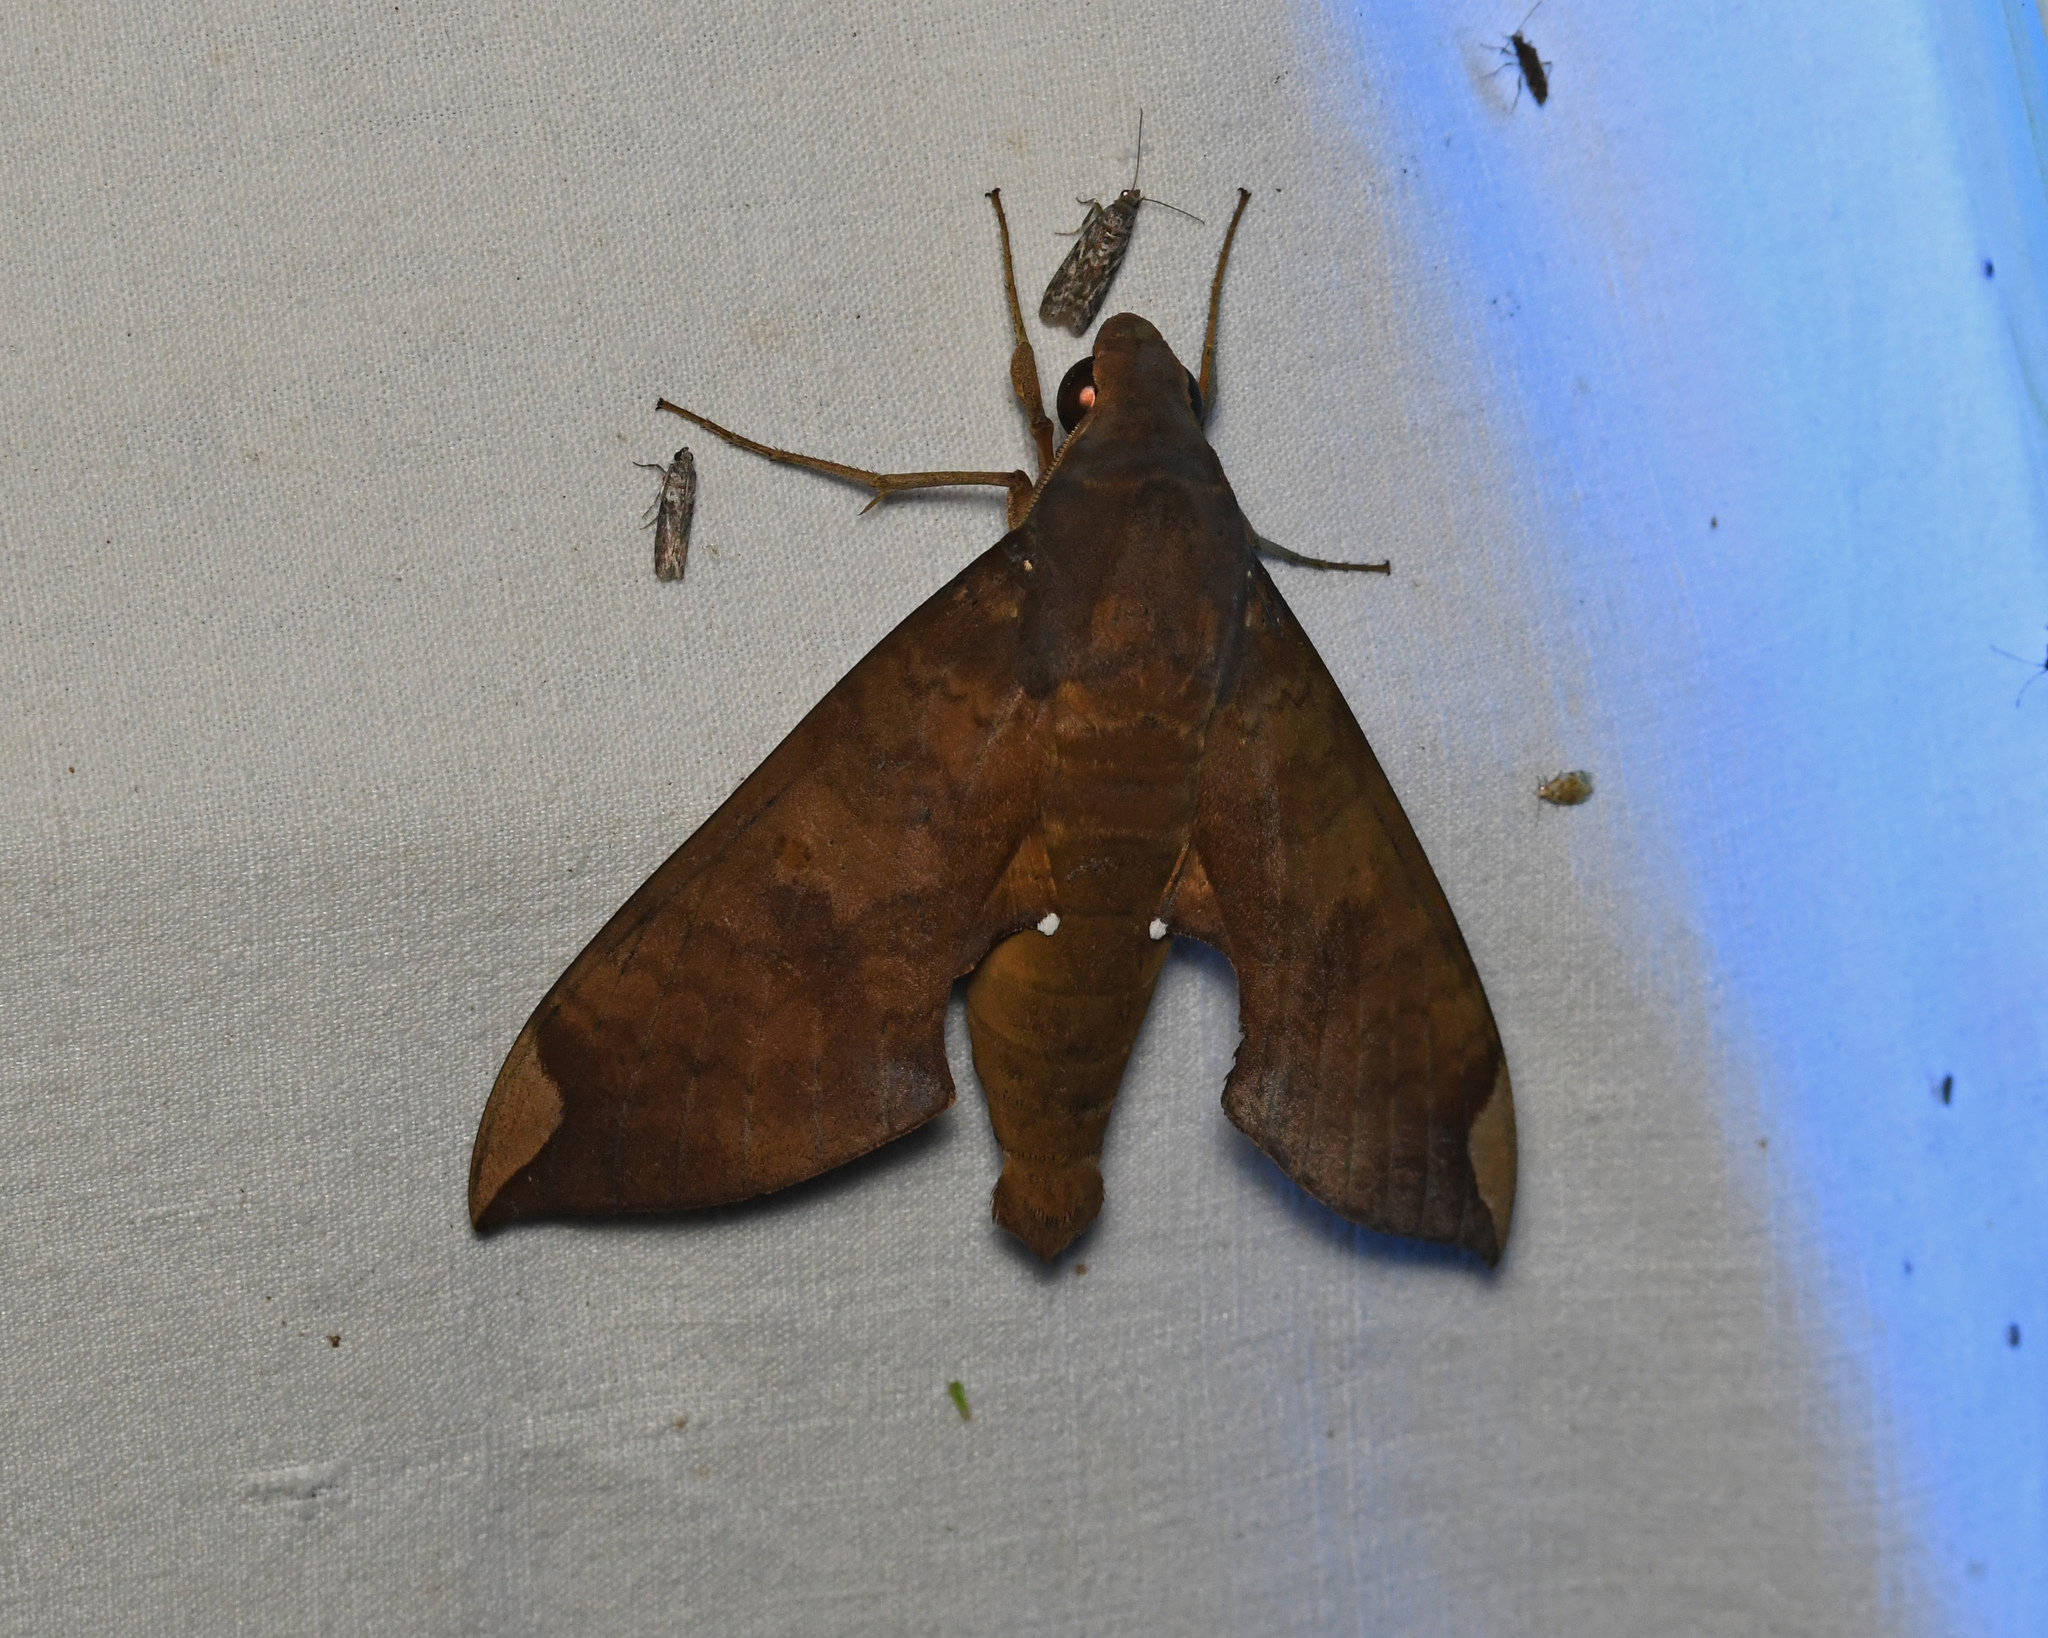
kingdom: Animalia
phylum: Arthropoda
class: Insecta
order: Lepidoptera
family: Sphingidae
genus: Pachylia
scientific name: Pachylia ficus
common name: Fig sphinx
